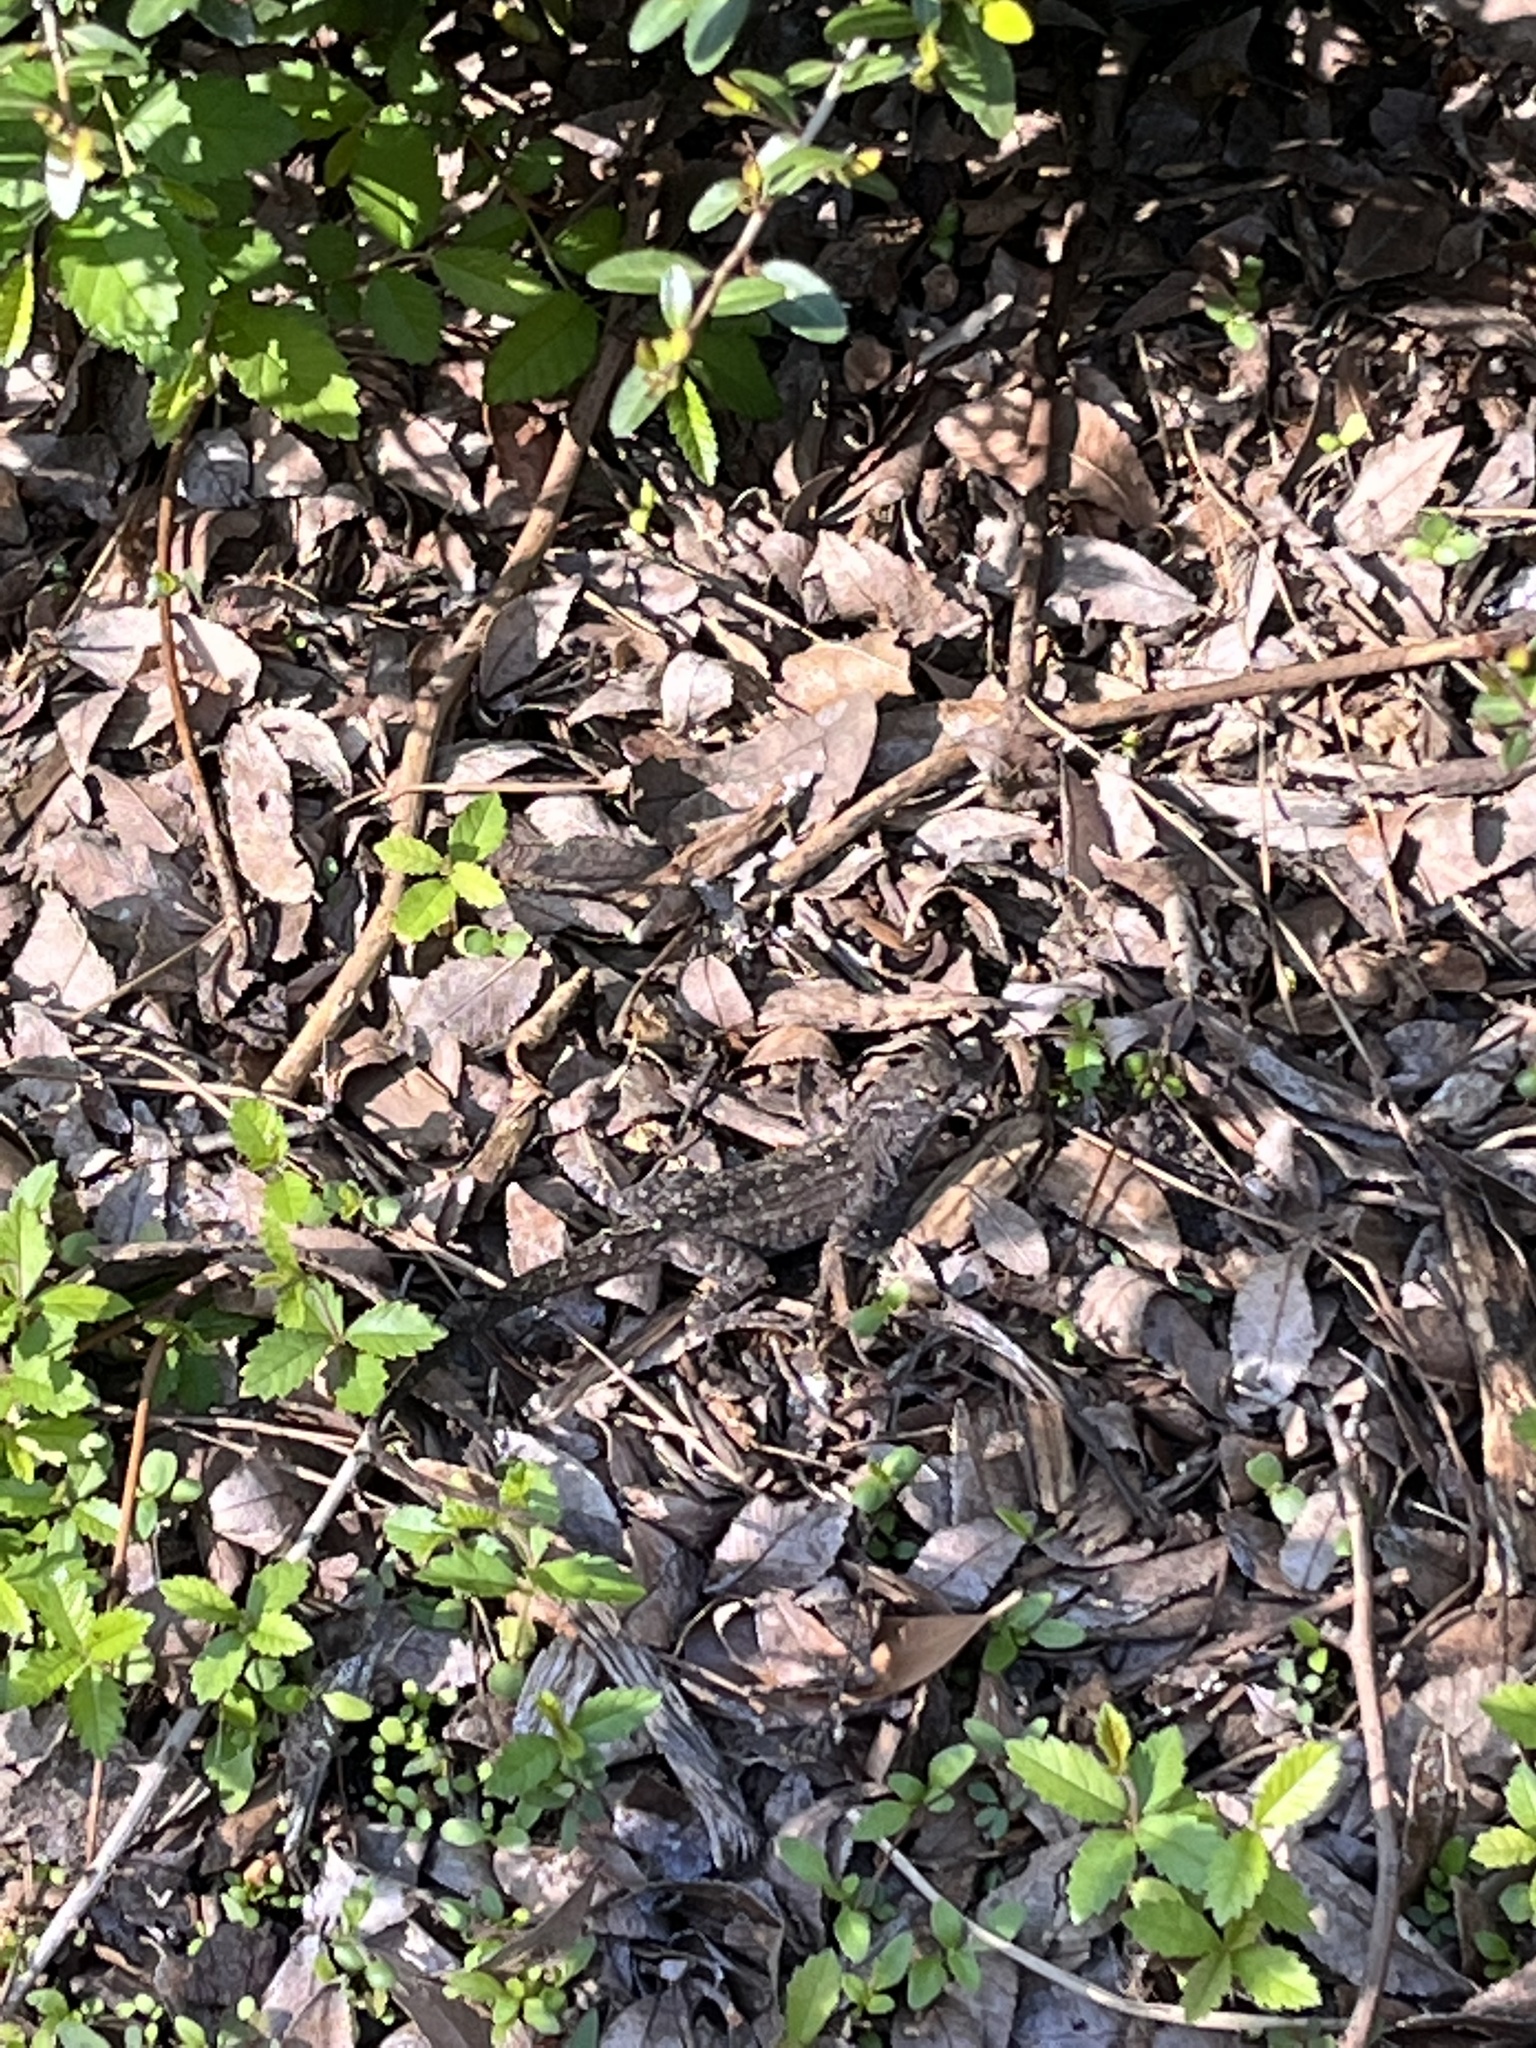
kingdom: Animalia
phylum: Chordata
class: Squamata
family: Dactyloidae
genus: Anolis
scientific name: Anolis sagrei
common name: Brown anole
